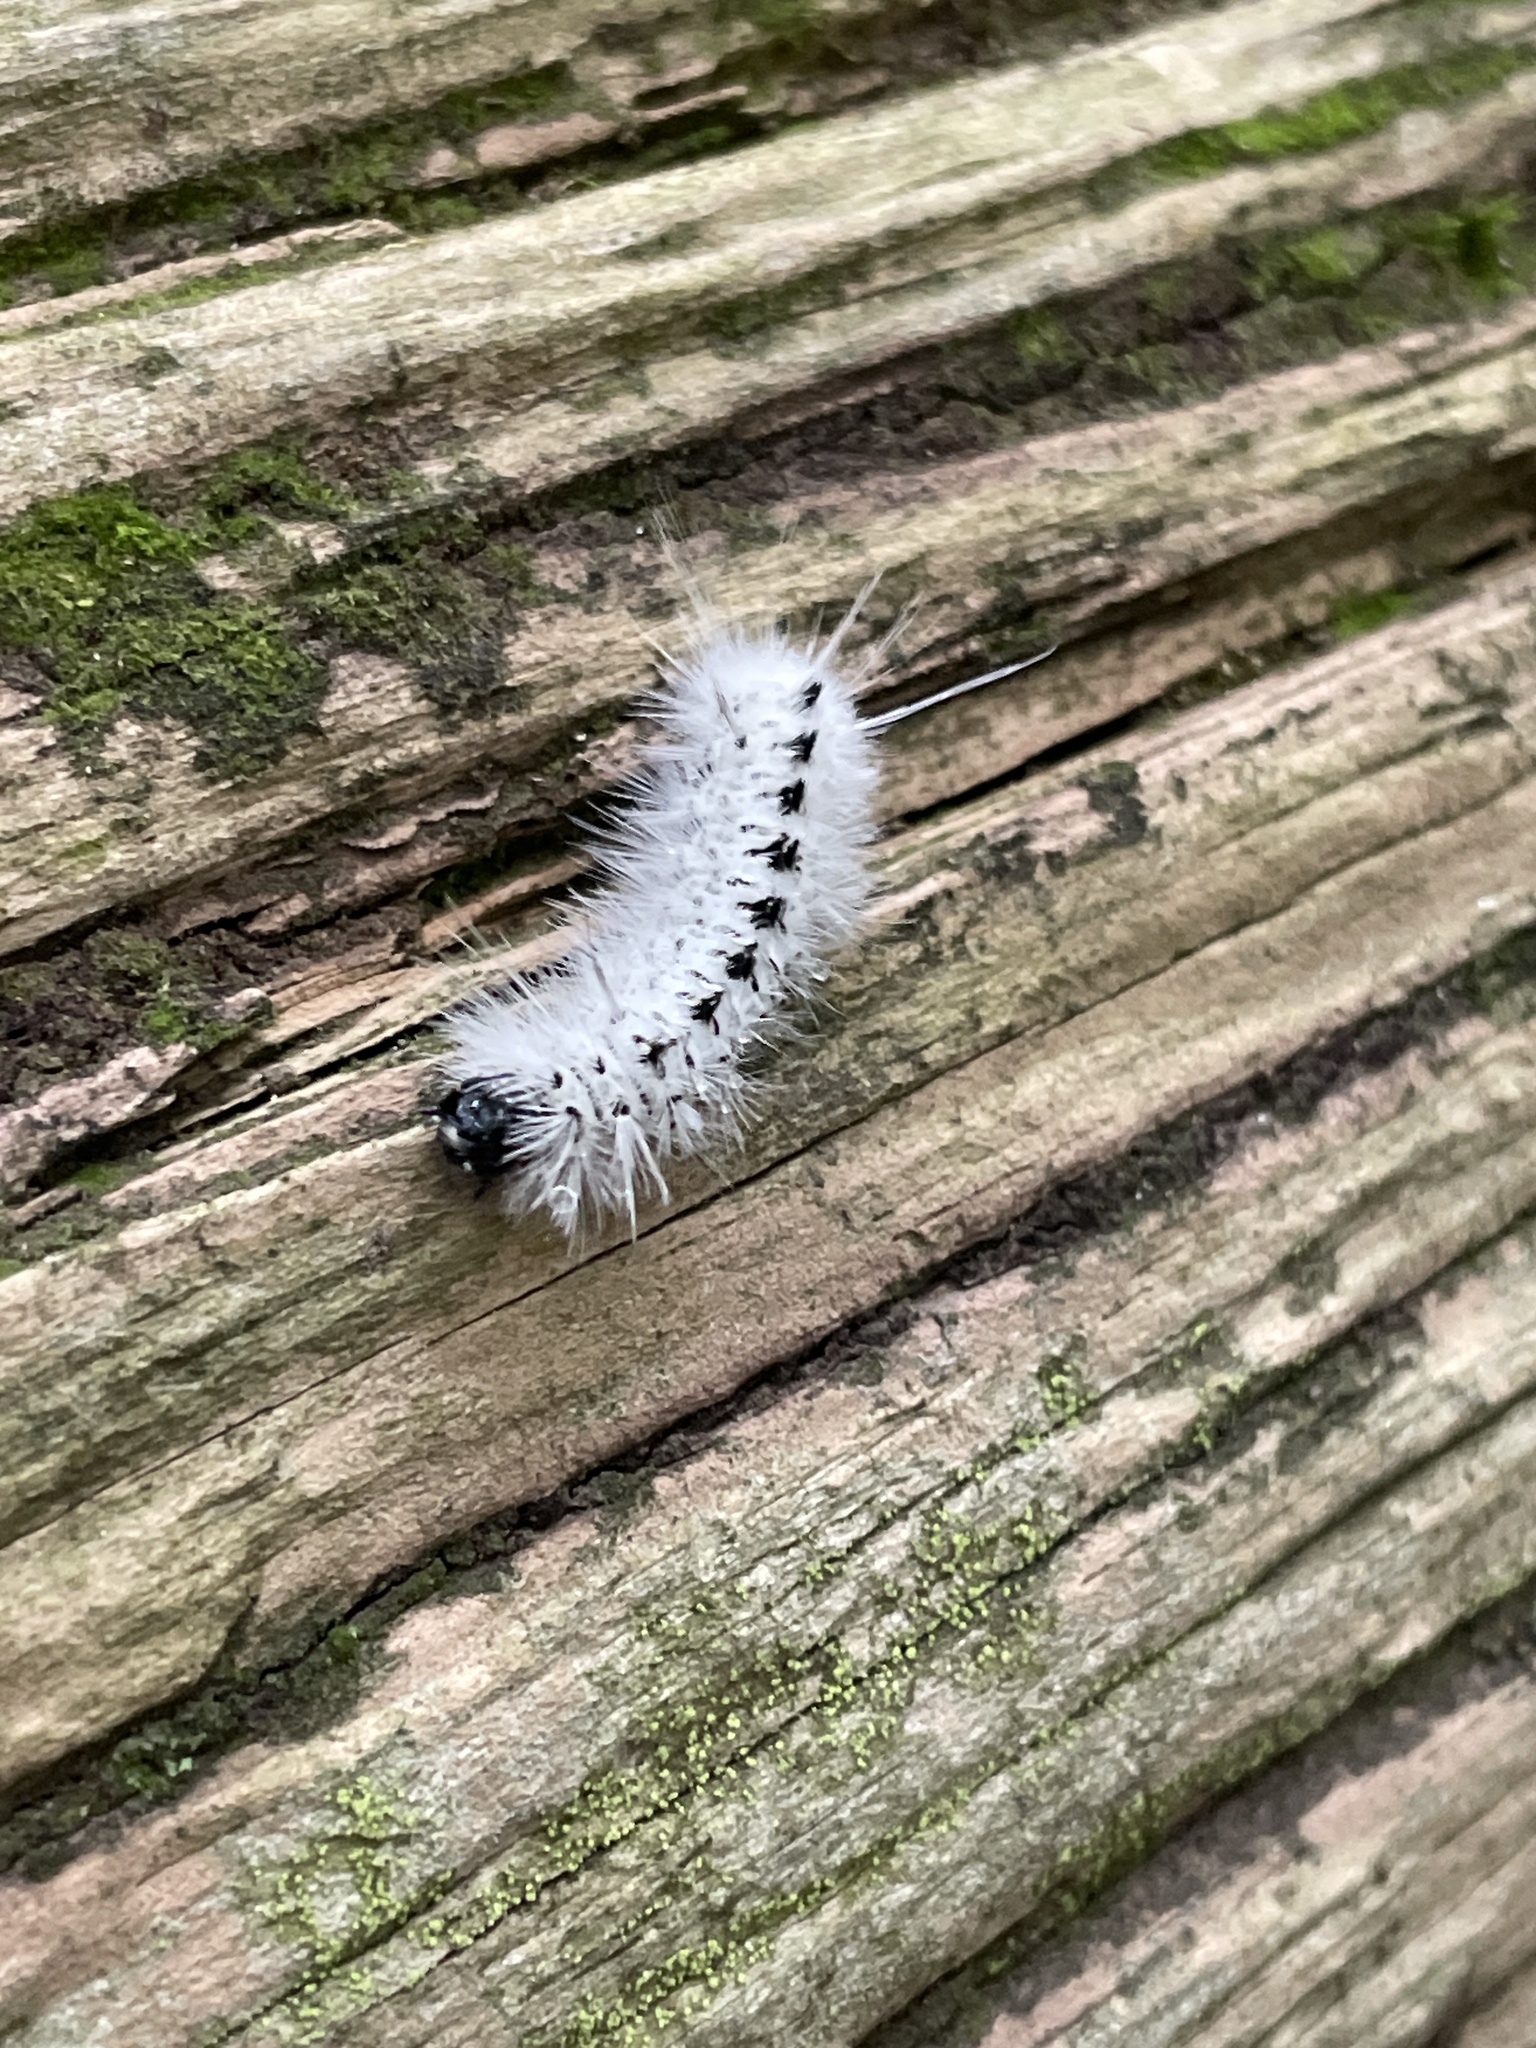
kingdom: Animalia
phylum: Arthropoda
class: Insecta
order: Lepidoptera
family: Erebidae
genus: Lophocampa
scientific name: Lophocampa caryae
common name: Hickory tussock moth
